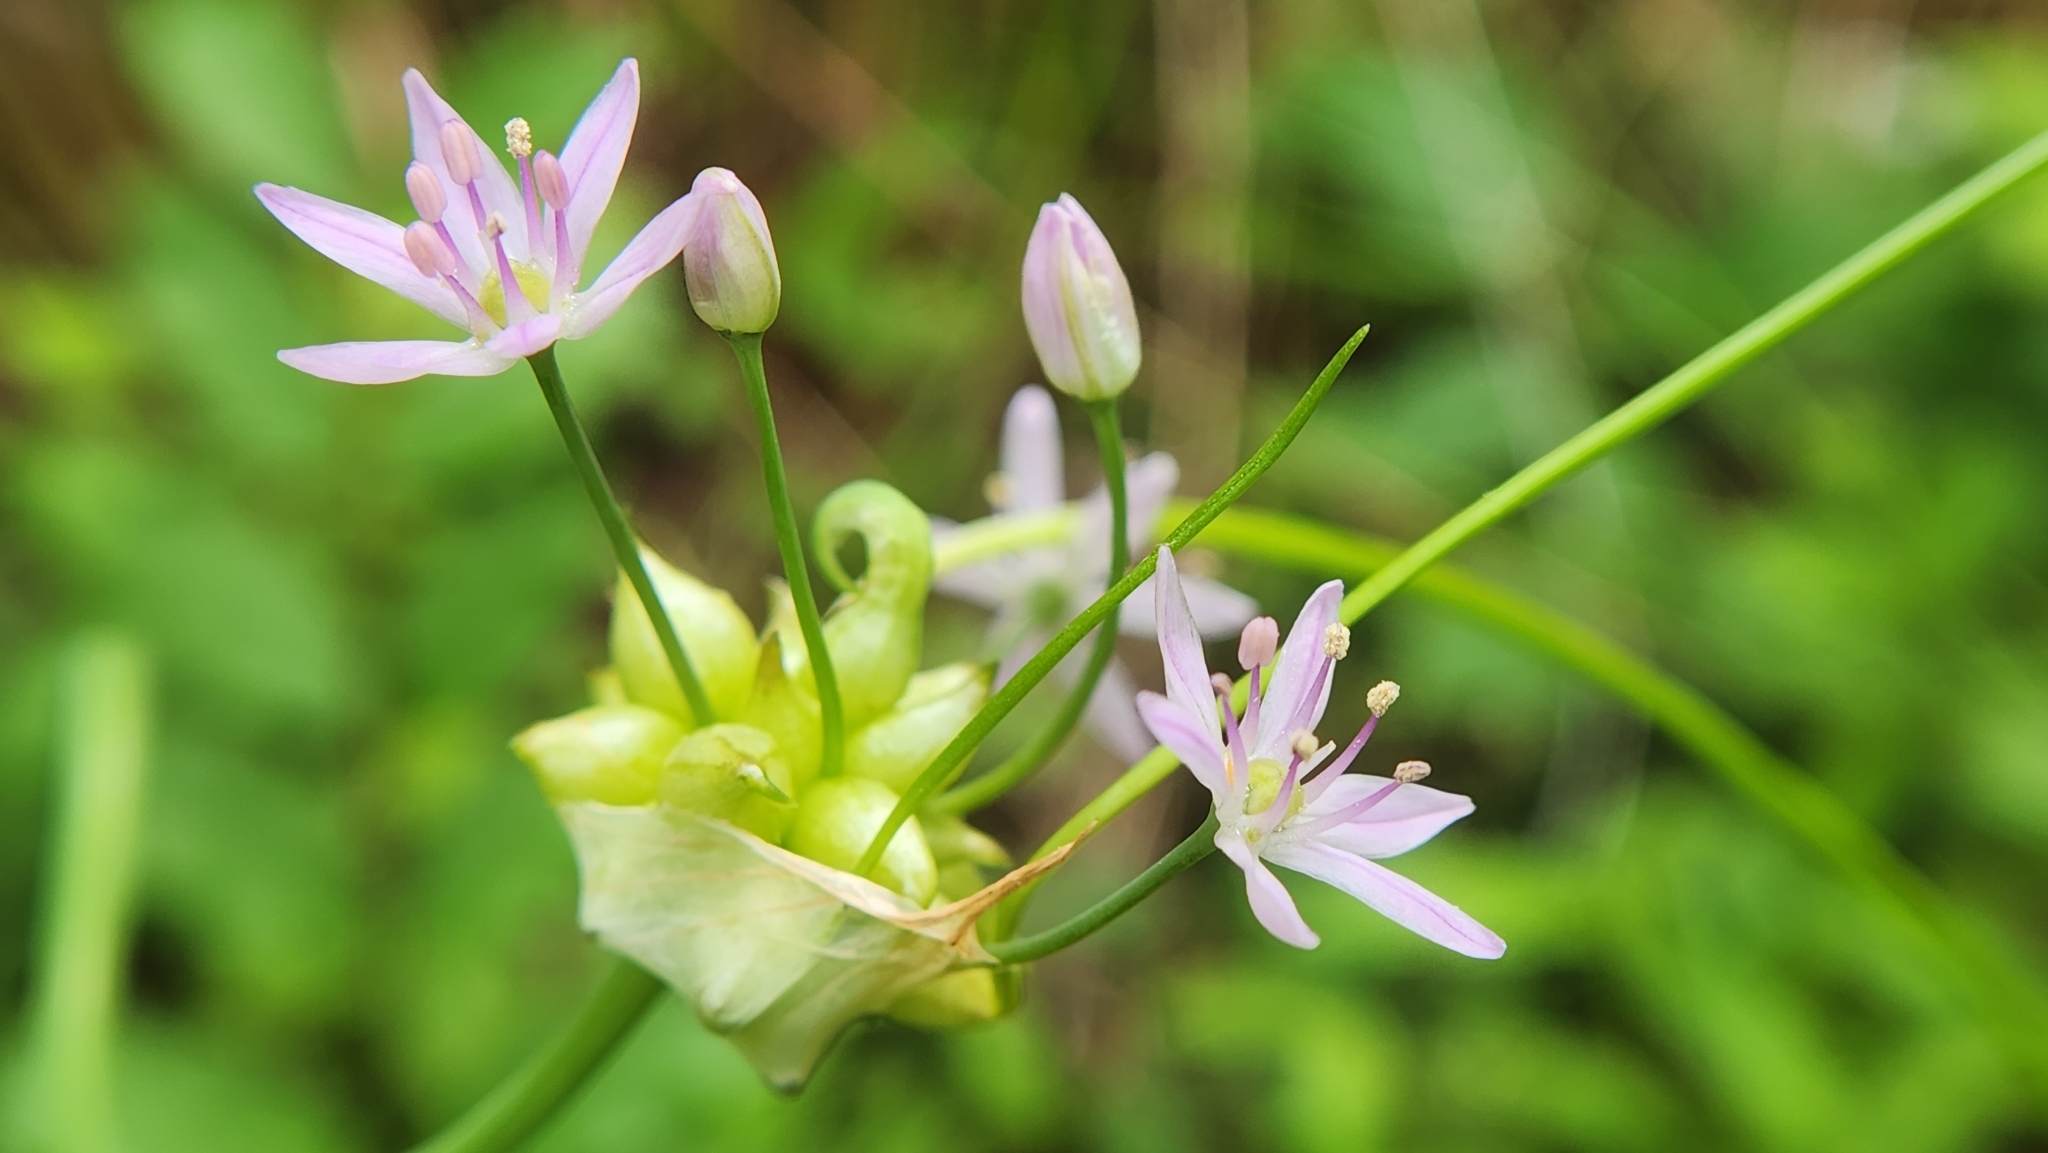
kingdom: Plantae
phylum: Tracheophyta
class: Liliopsida
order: Asparagales
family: Amaryllidaceae
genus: Allium
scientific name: Allium canadense
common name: Meadow garlic
